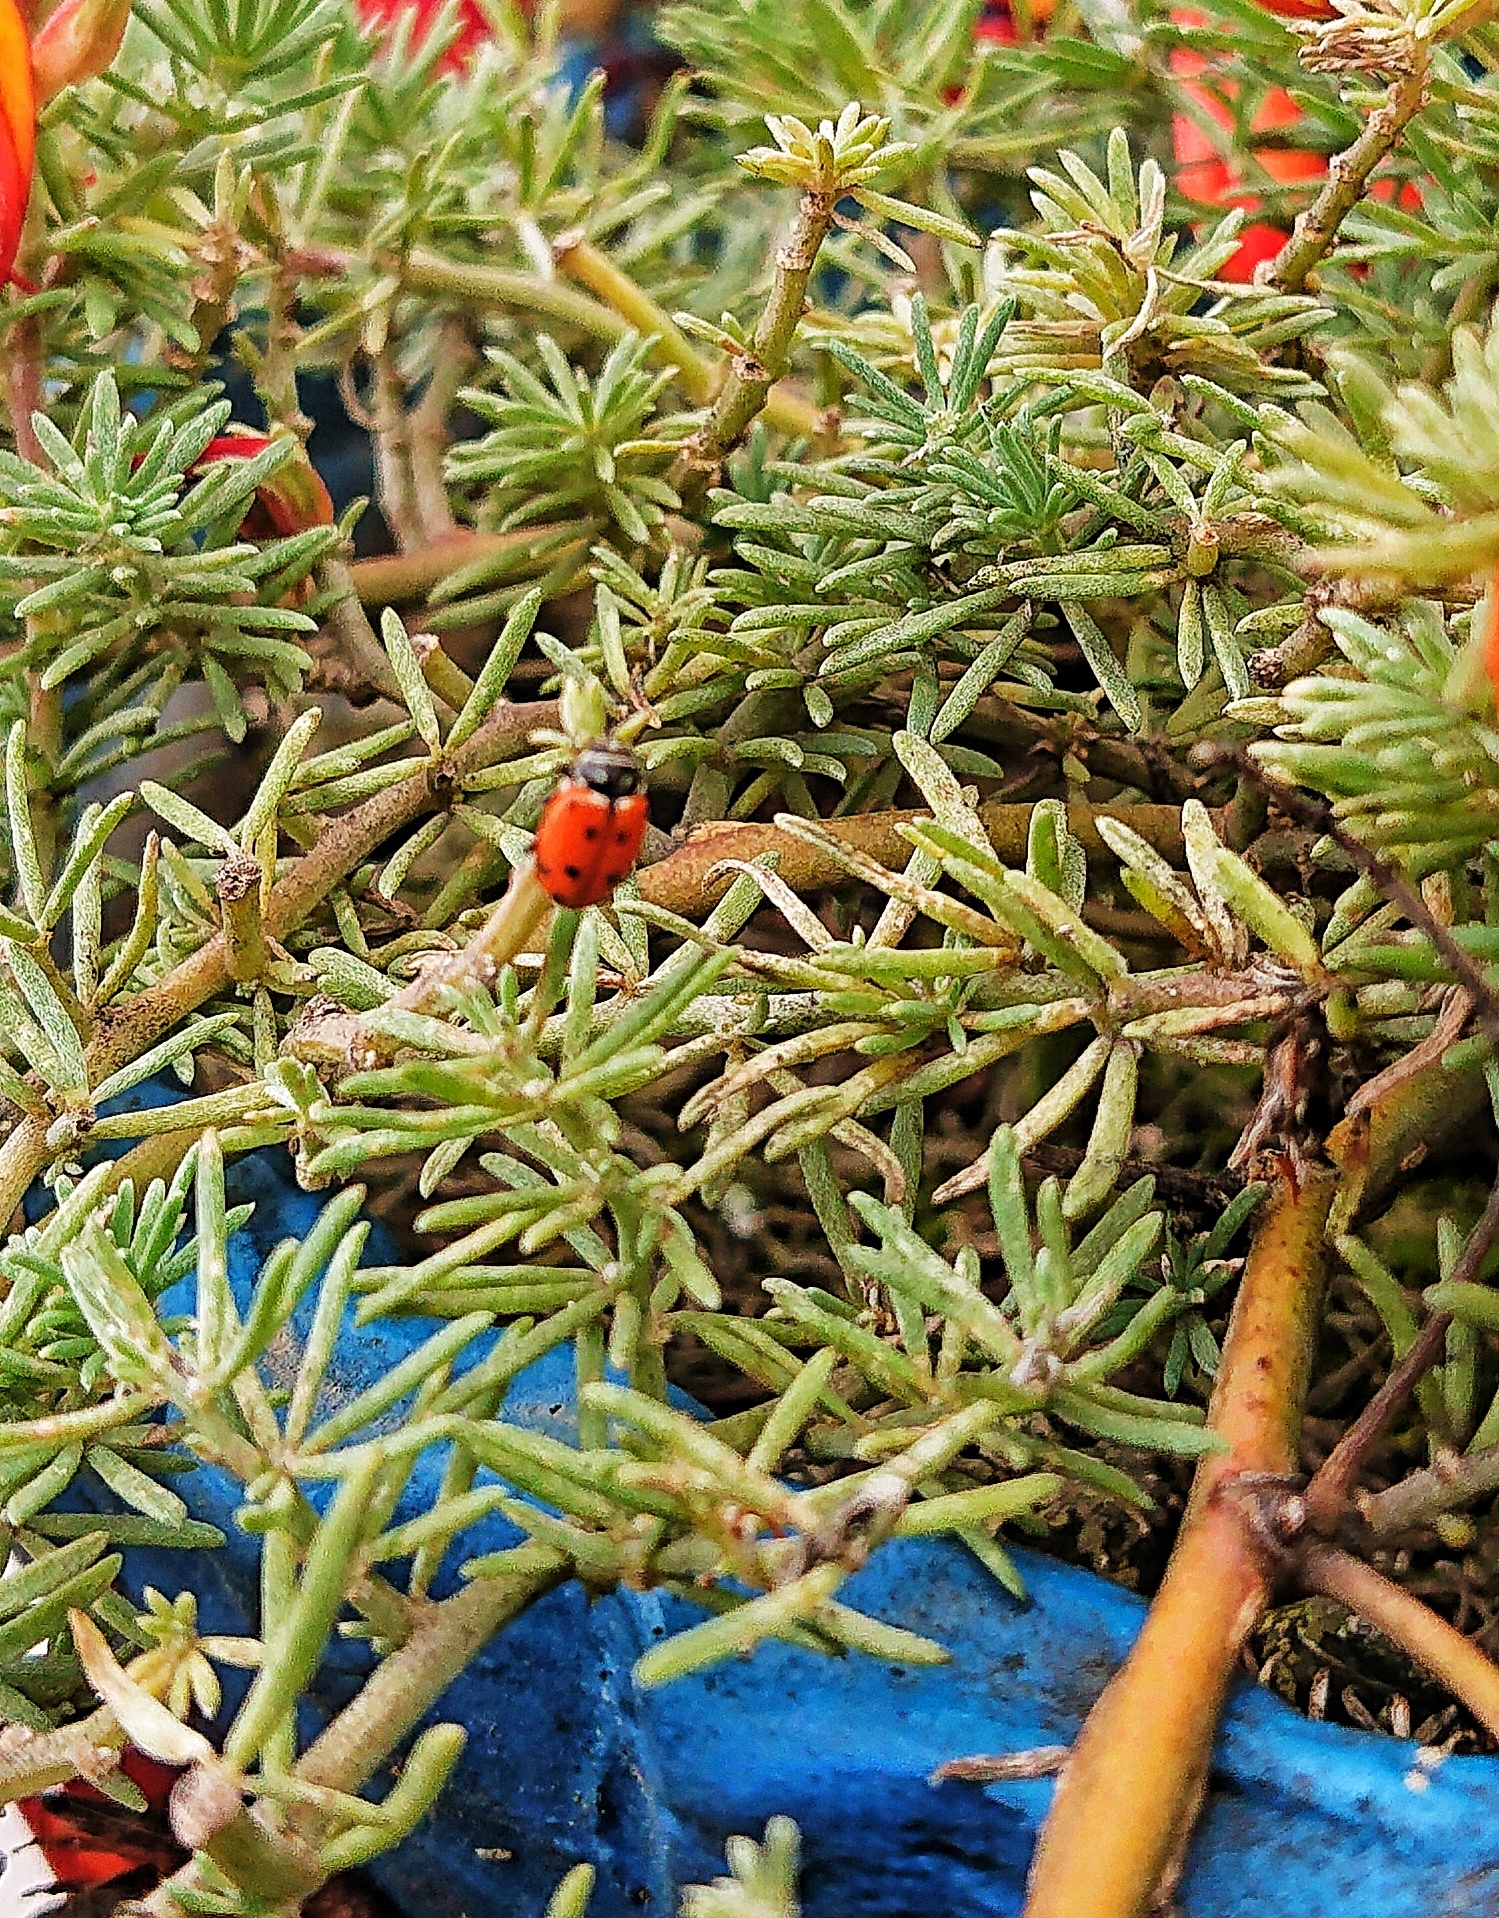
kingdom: Animalia
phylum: Arthropoda
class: Insecta
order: Coleoptera
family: Coccinellidae
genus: Hippodamia
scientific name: Hippodamia convergens
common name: Convergent lady beetle
